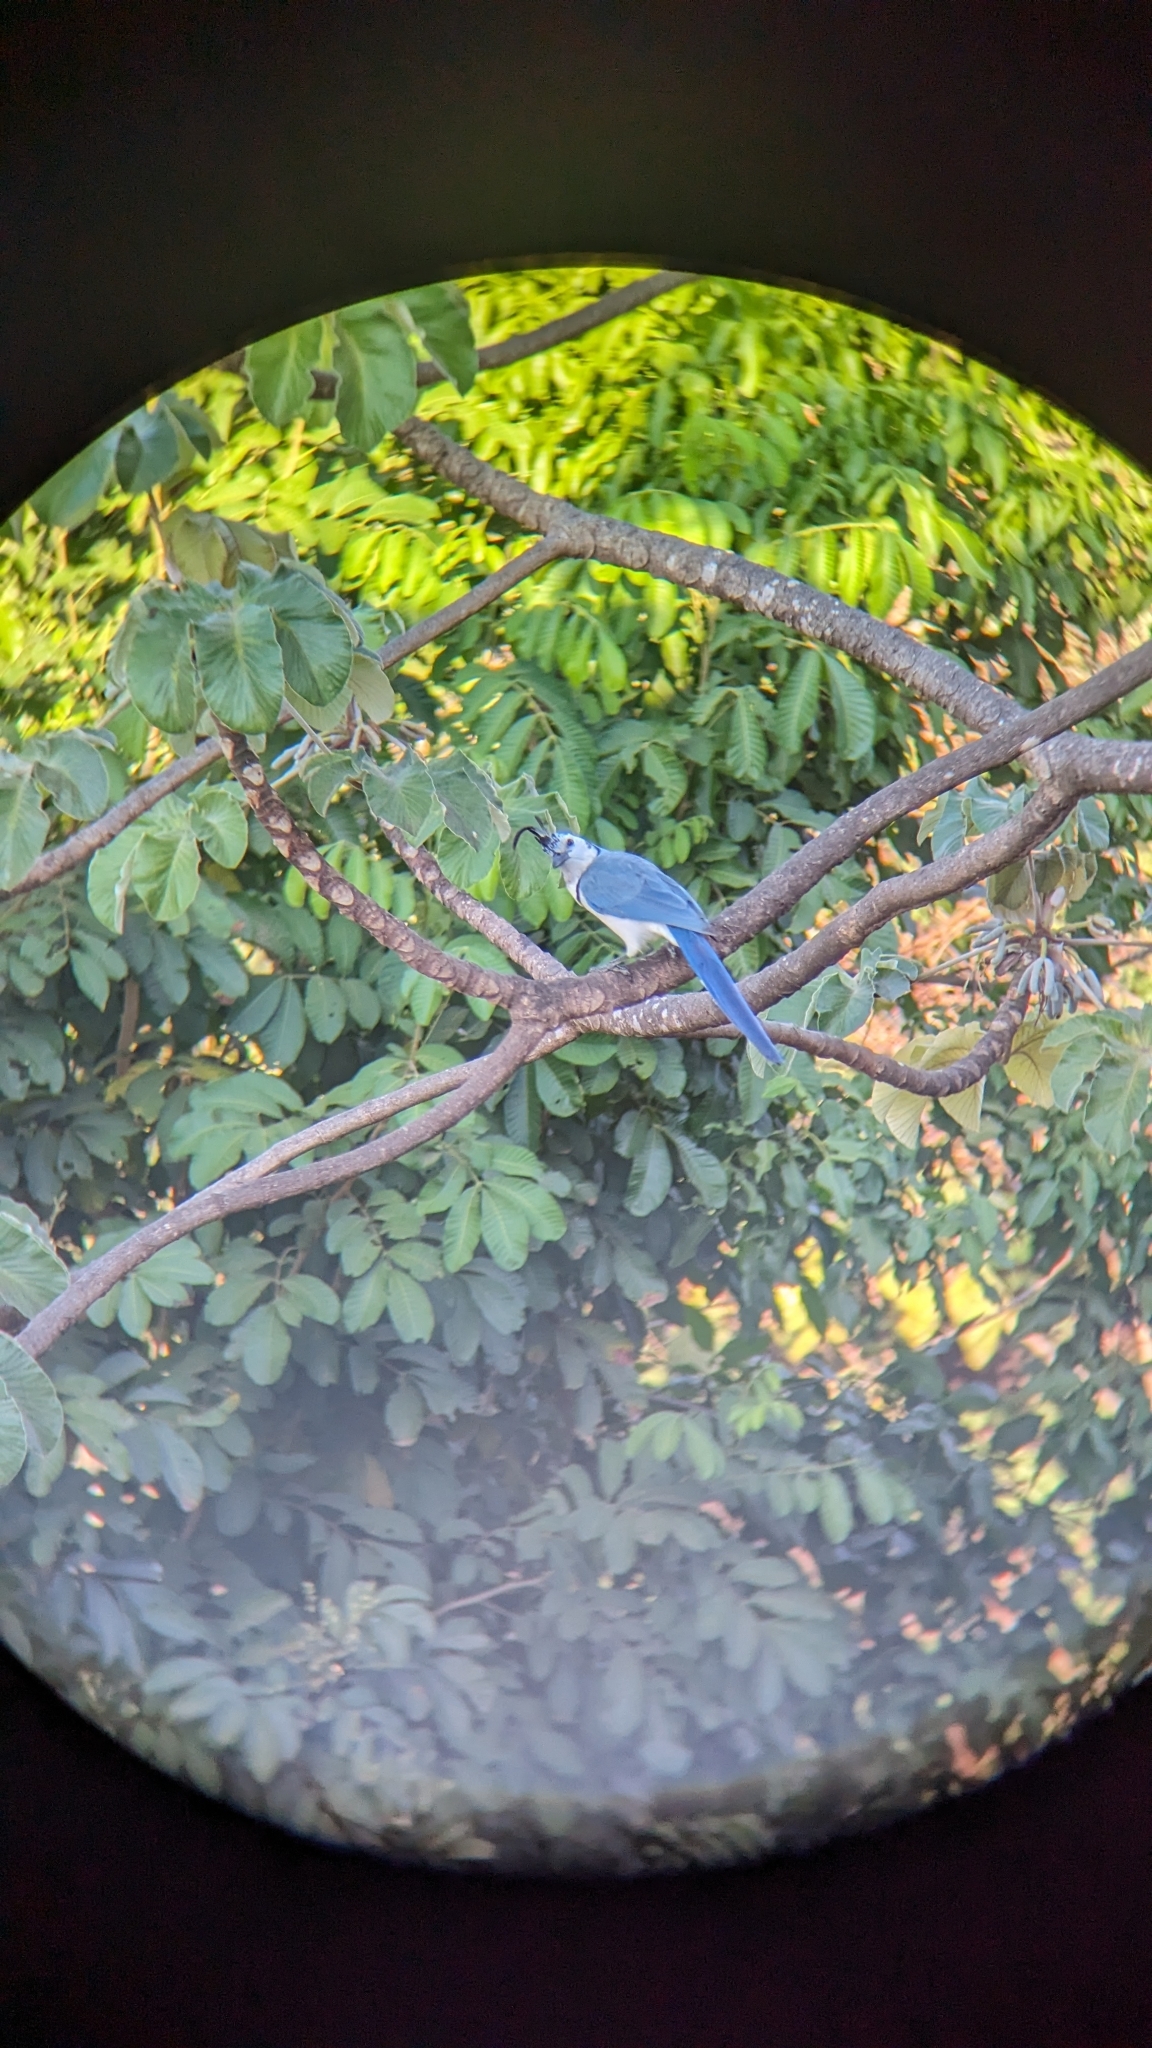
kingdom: Animalia
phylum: Chordata
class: Aves
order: Passeriformes
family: Corvidae
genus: Calocitta
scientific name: Calocitta formosa
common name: White-throated magpie-jay
